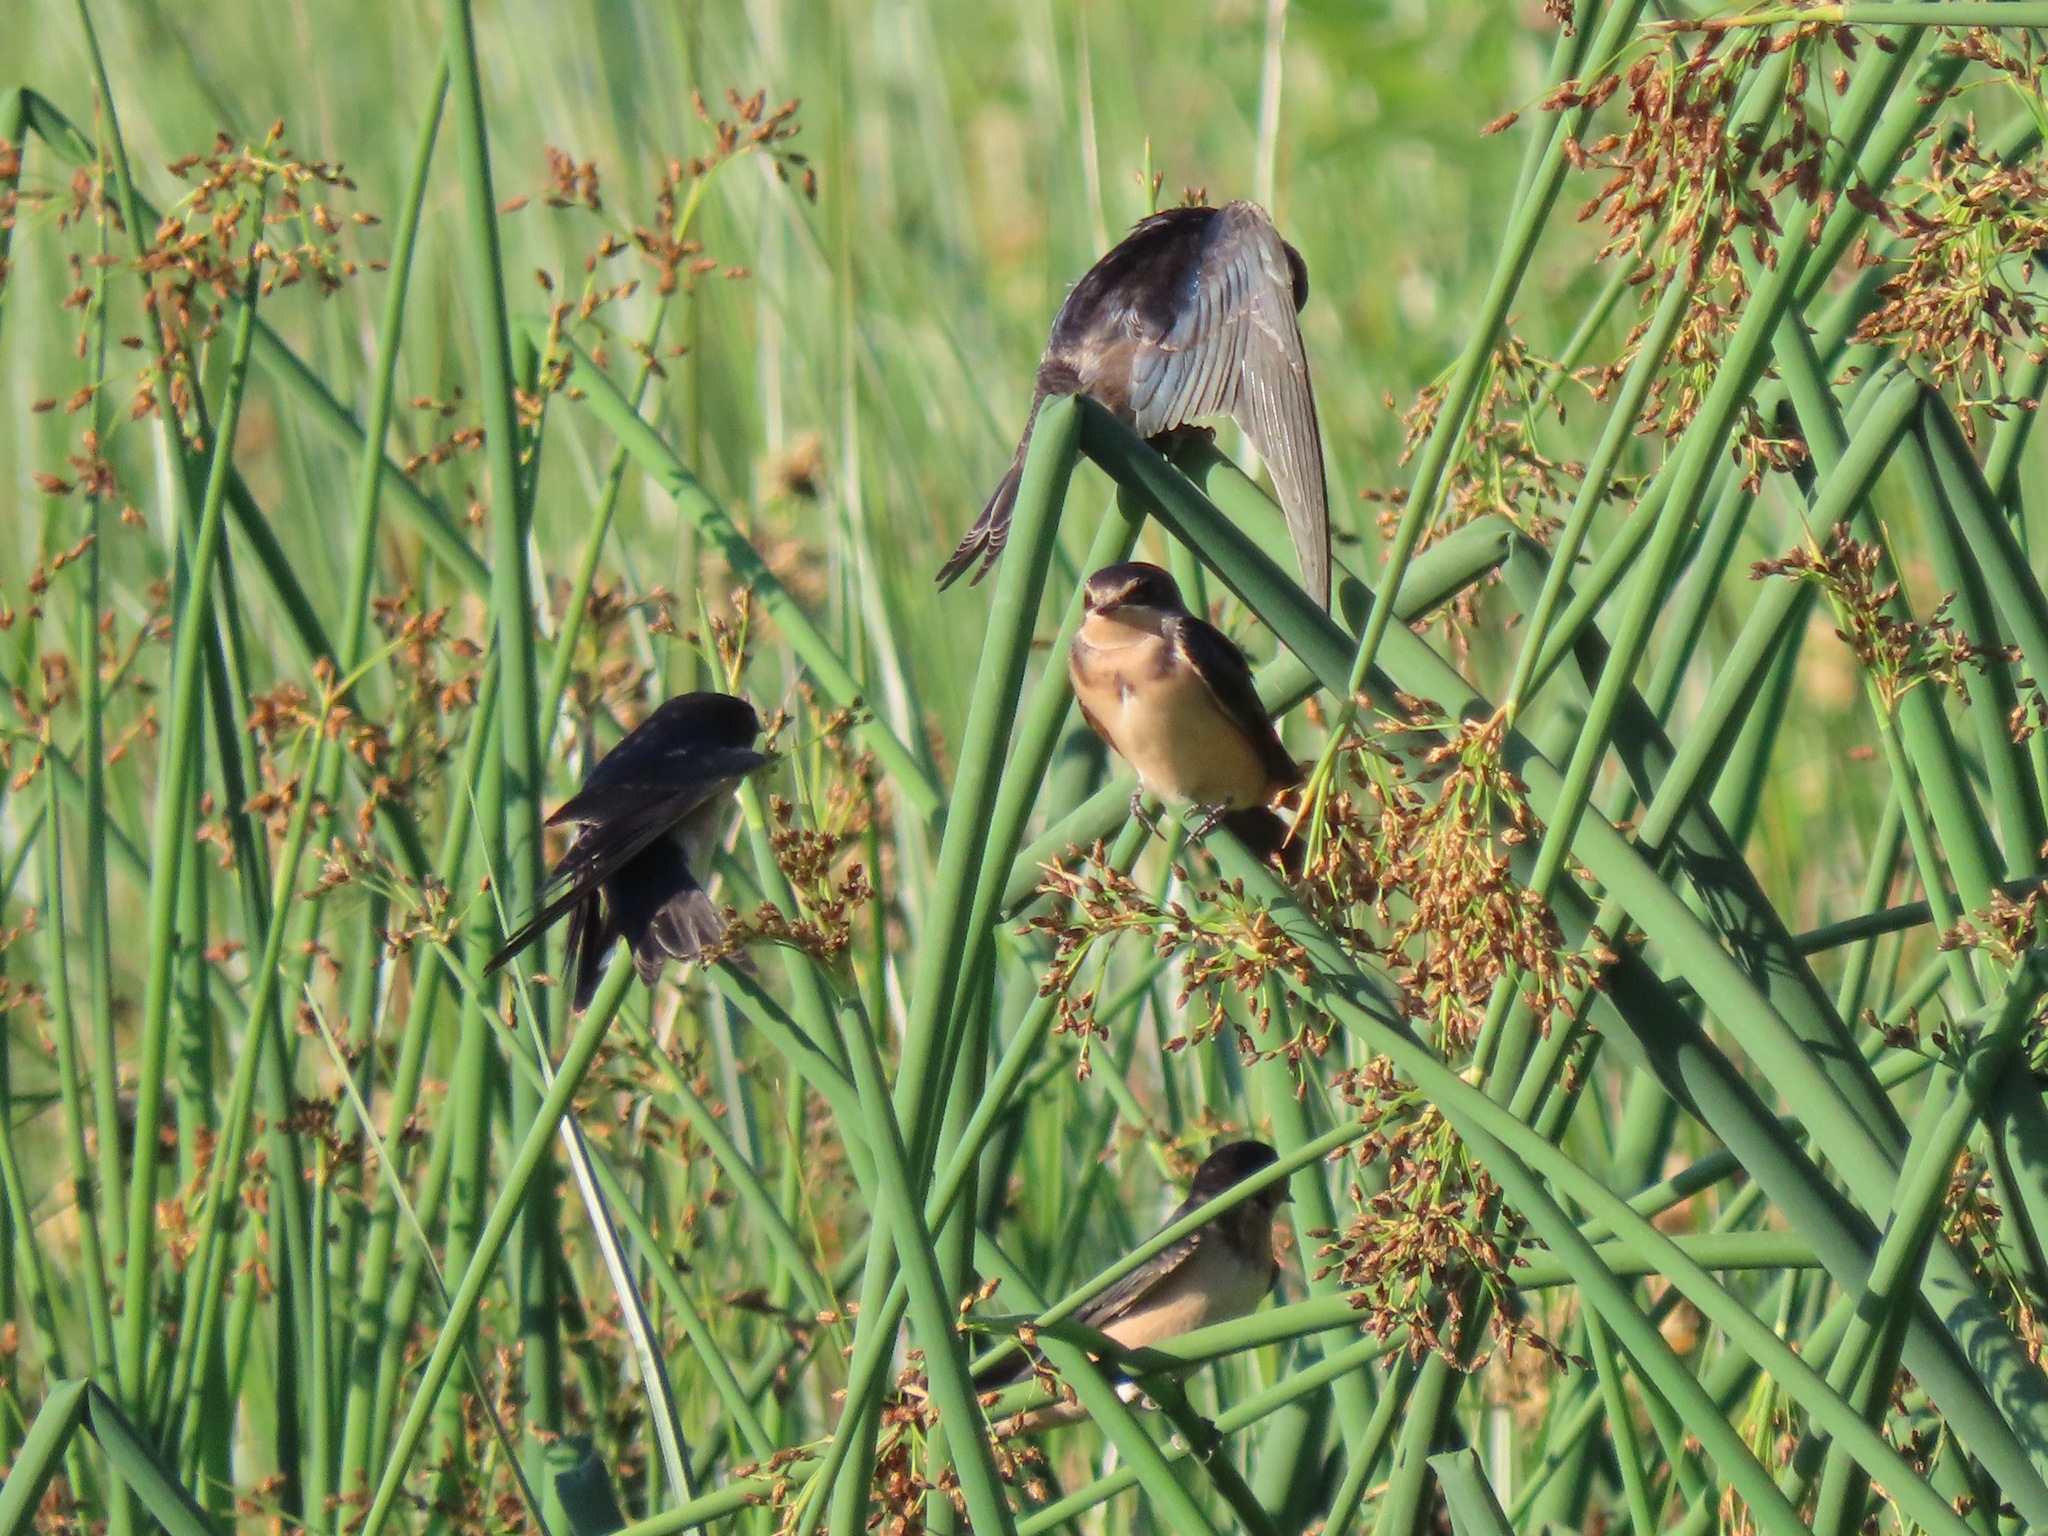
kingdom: Animalia
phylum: Chordata
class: Aves
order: Passeriformes
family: Hirundinidae
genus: Hirundo
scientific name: Hirundo rustica
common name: Barn swallow
